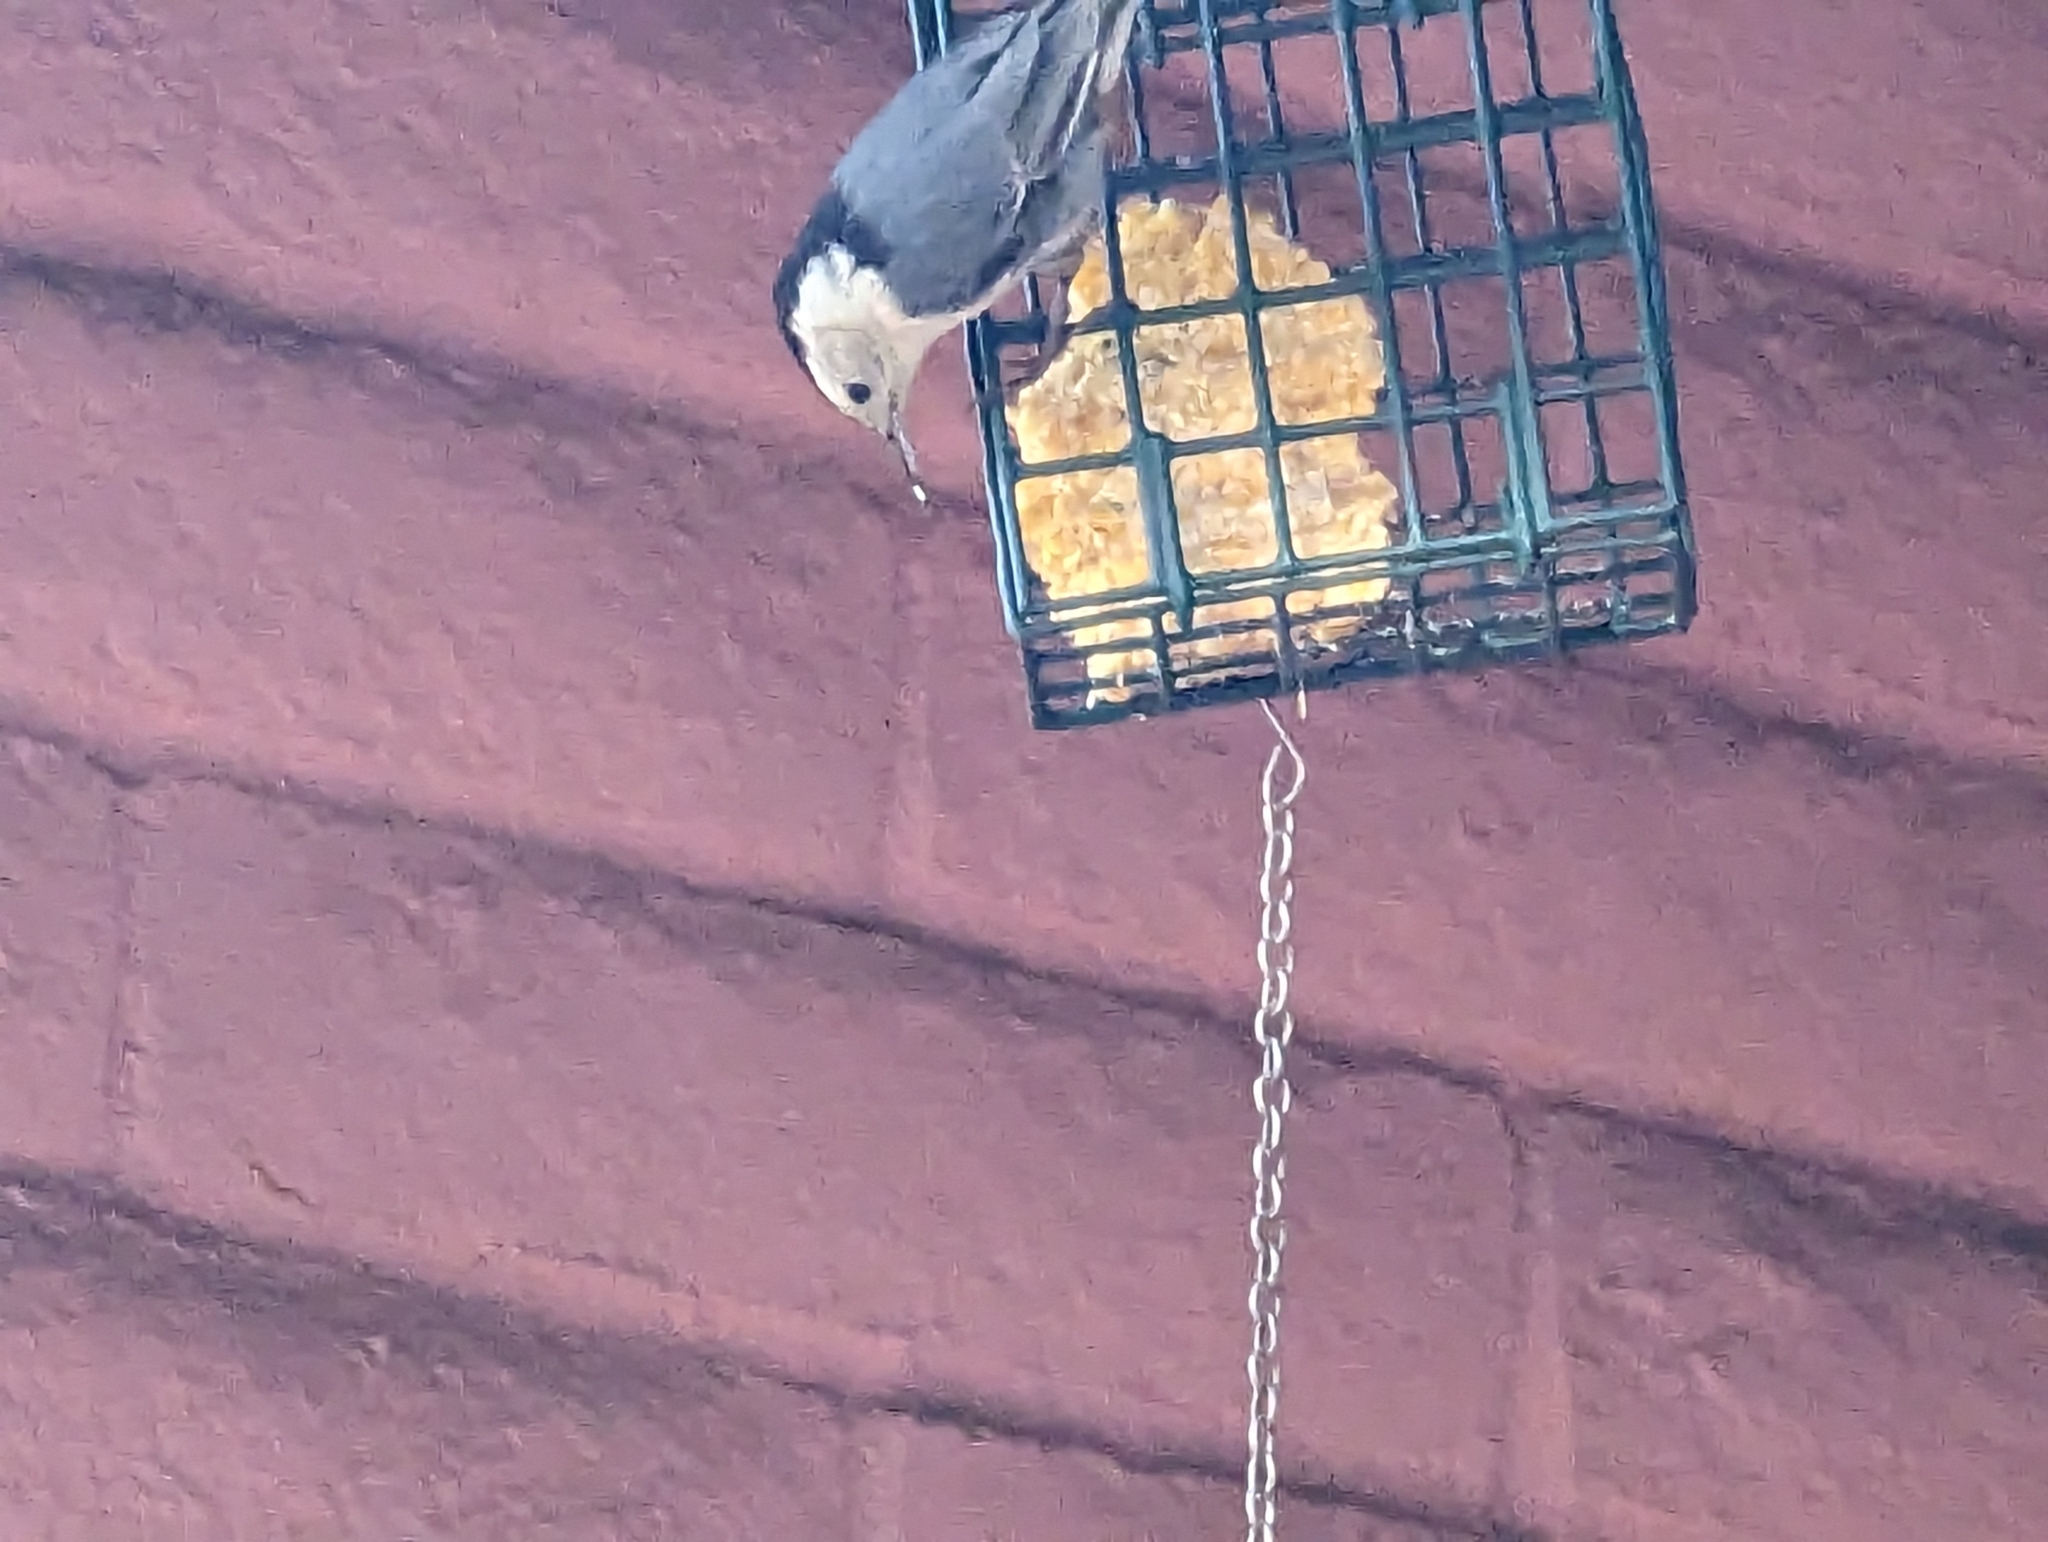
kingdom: Animalia
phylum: Chordata
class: Aves
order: Passeriformes
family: Sittidae
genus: Sitta
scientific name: Sitta carolinensis
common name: White-breasted nuthatch
